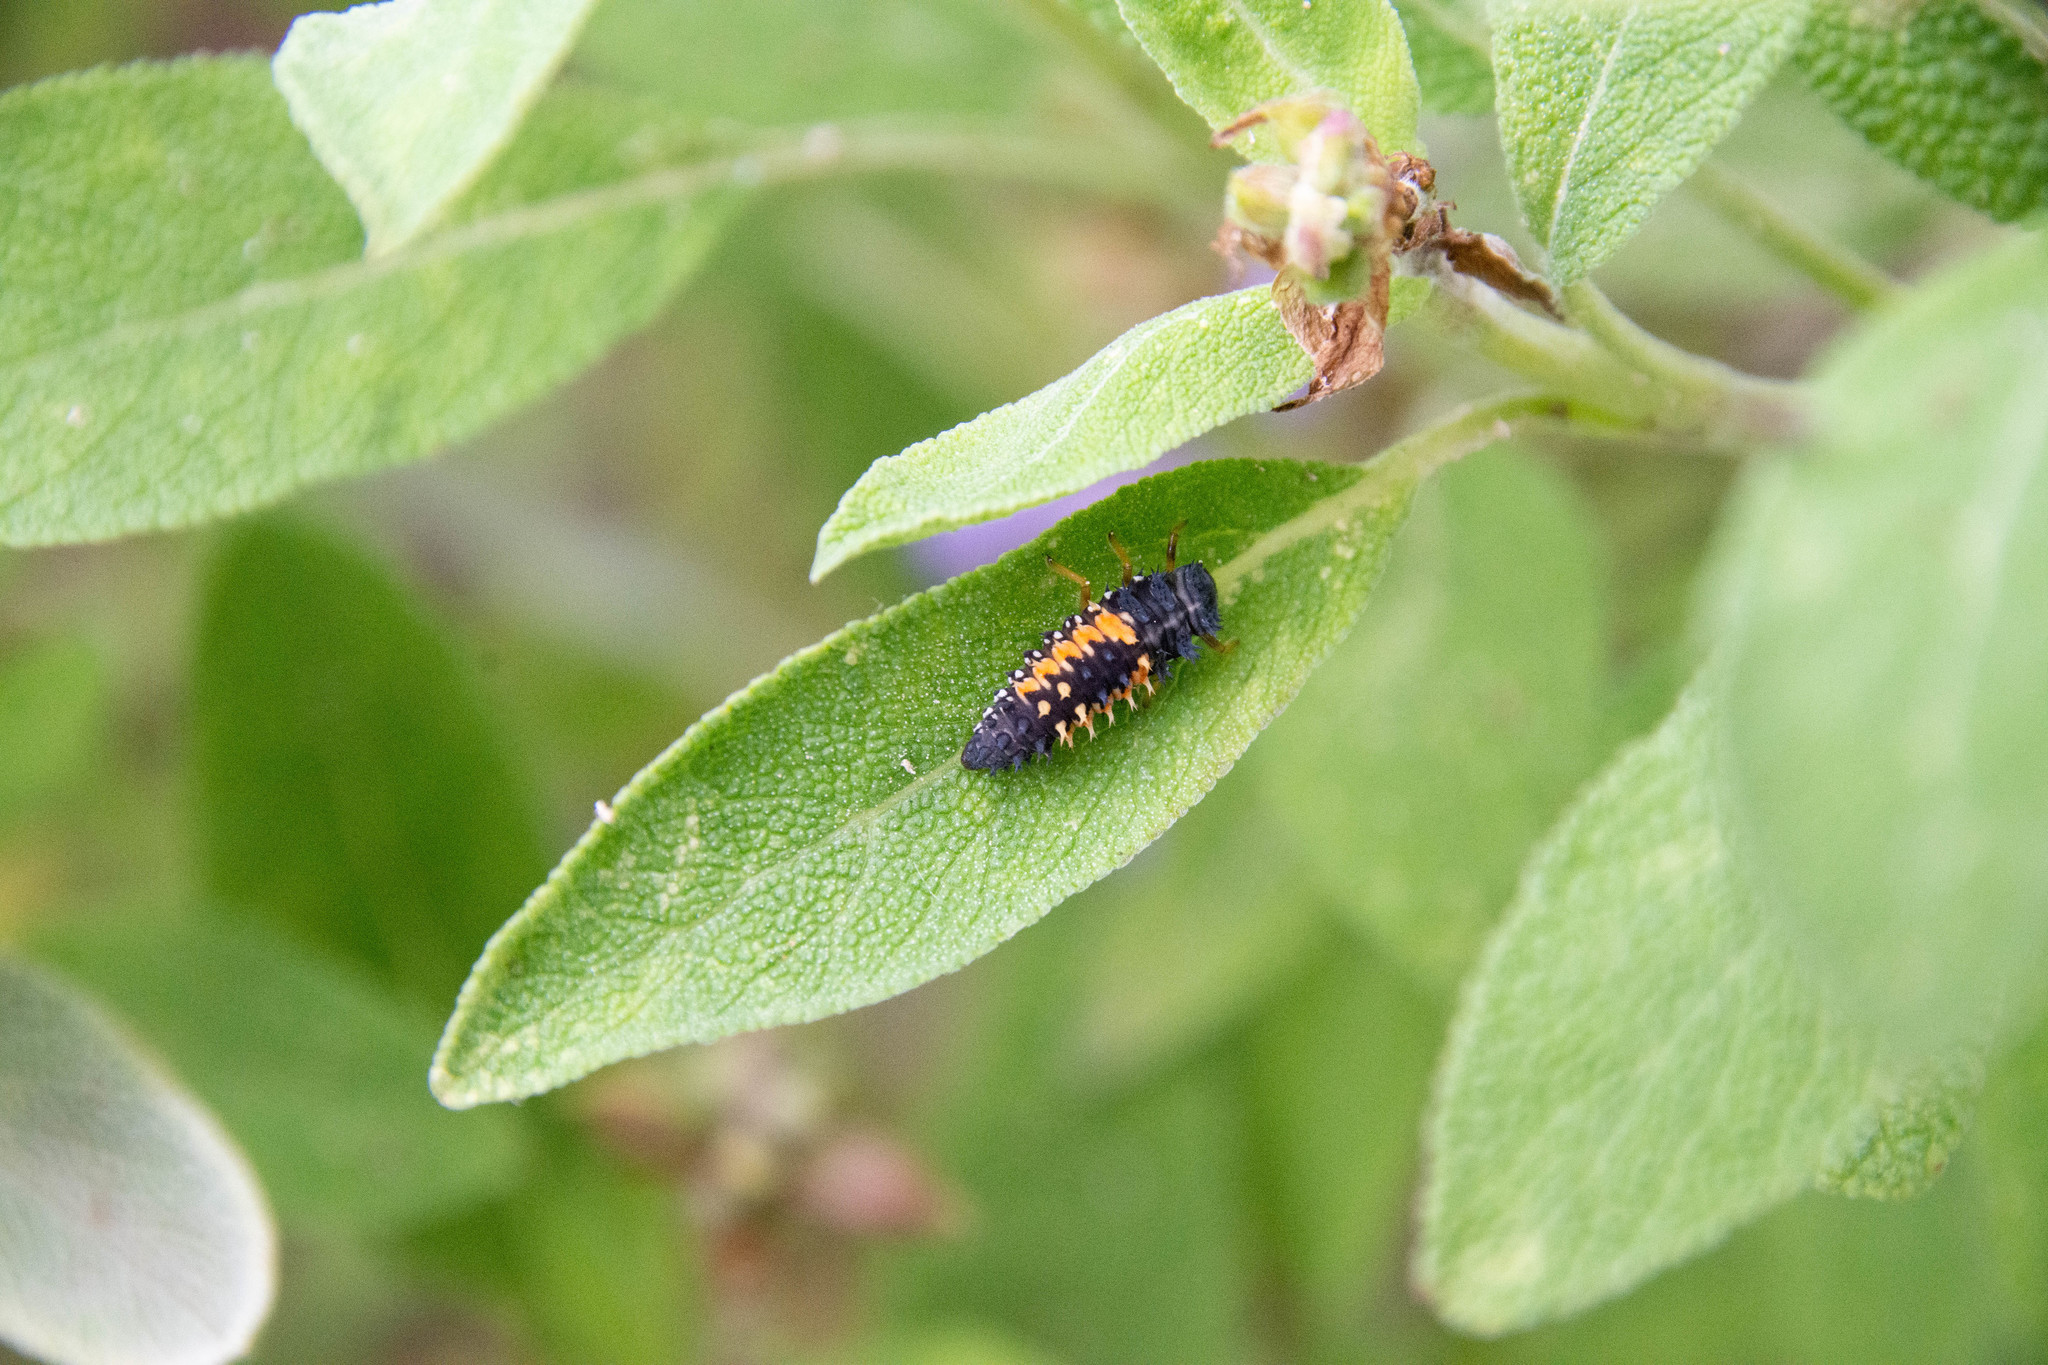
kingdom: Animalia
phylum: Arthropoda
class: Insecta
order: Coleoptera
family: Coccinellidae
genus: Harmonia
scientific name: Harmonia axyridis
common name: Harlequin ladybird
